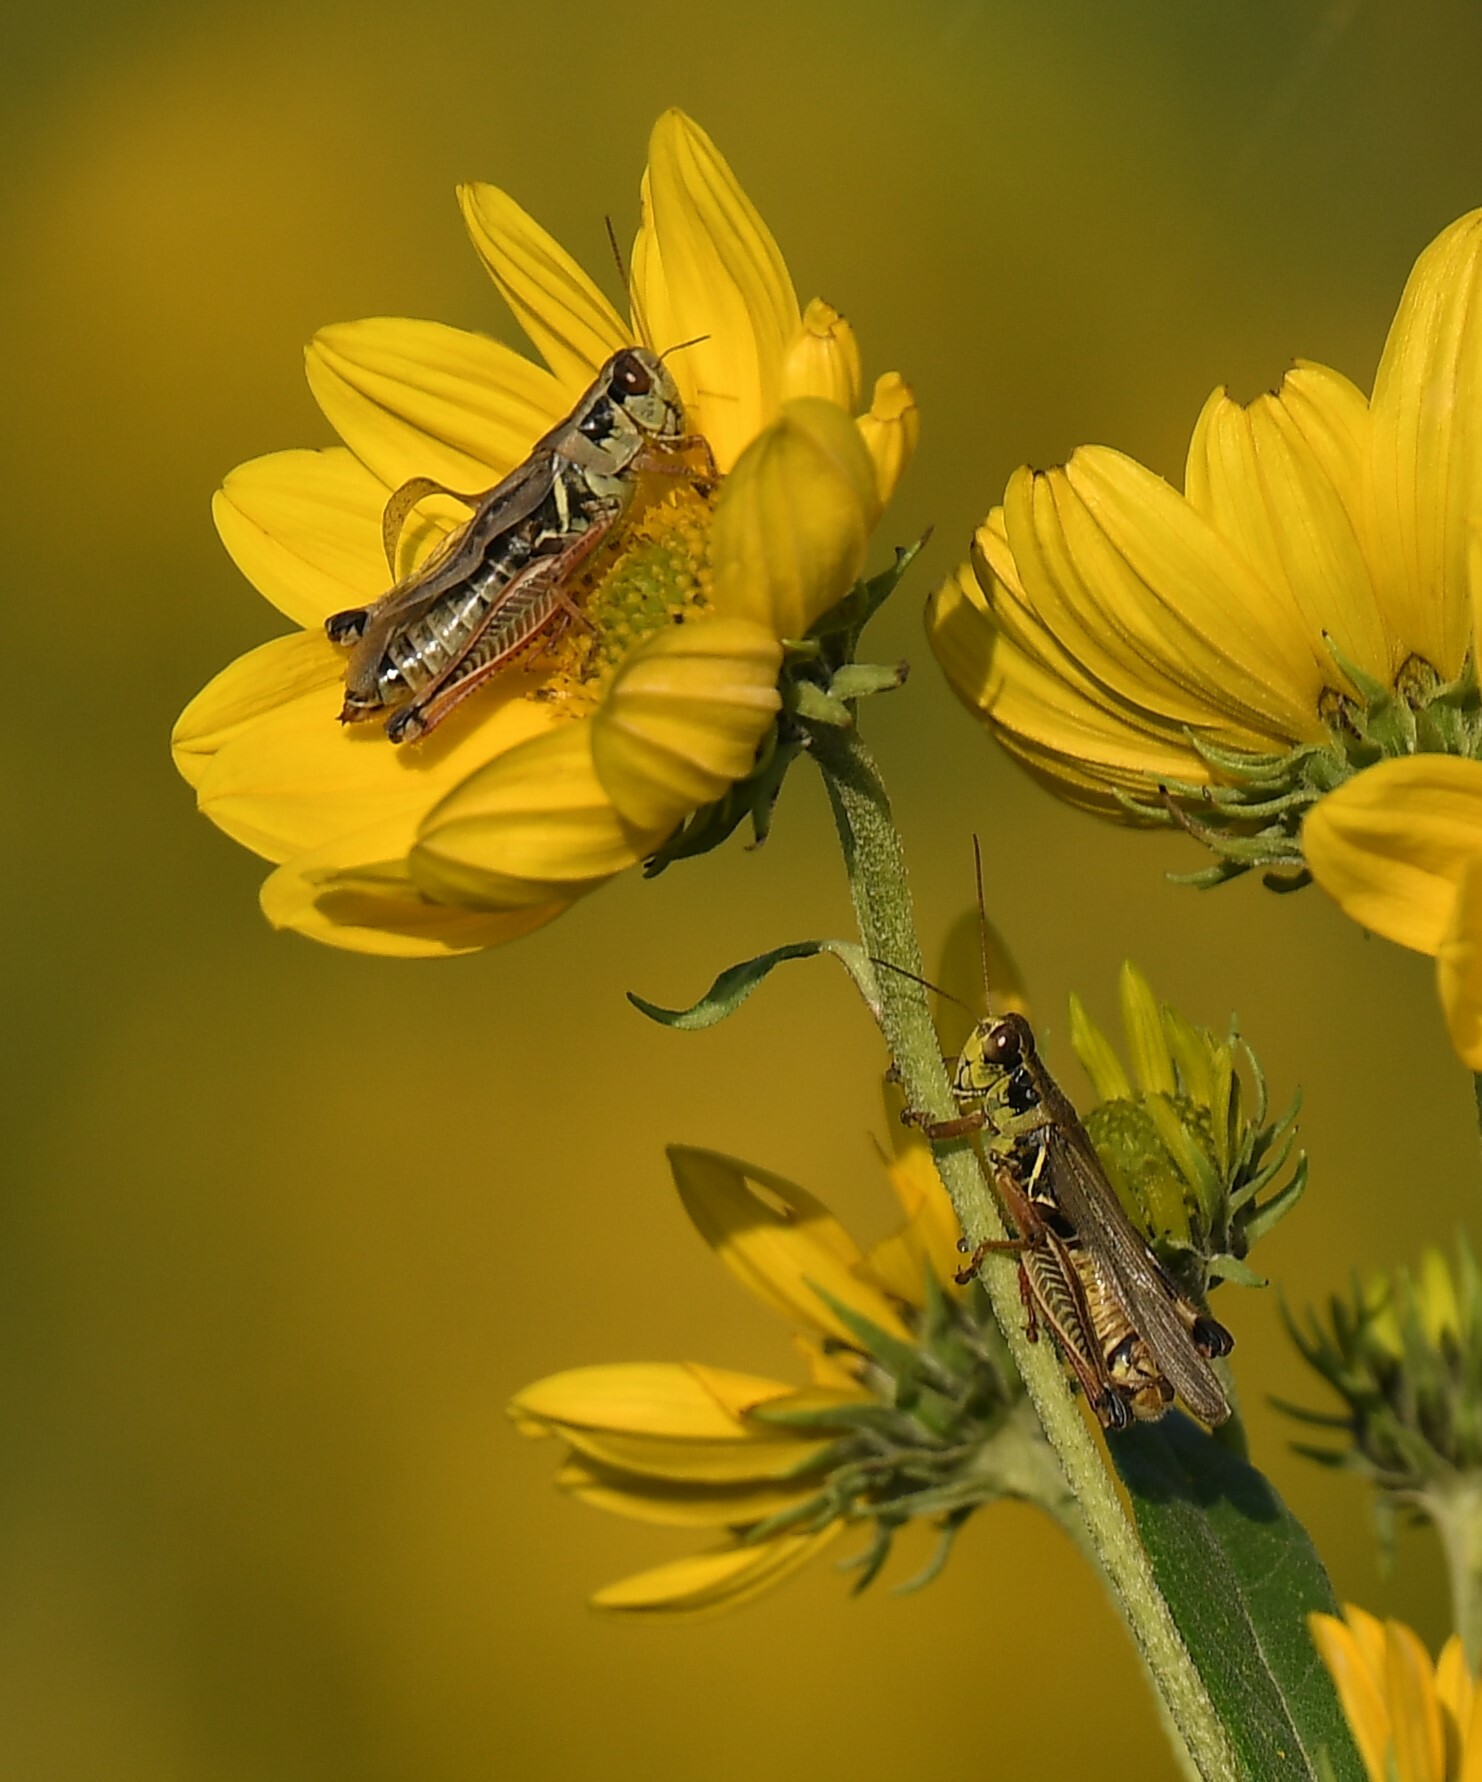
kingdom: Animalia
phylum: Arthropoda
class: Insecta
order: Orthoptera
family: Acrididae
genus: Melanoplus
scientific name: Melanoplus femurrubrum
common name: Red-legged grasshopper
